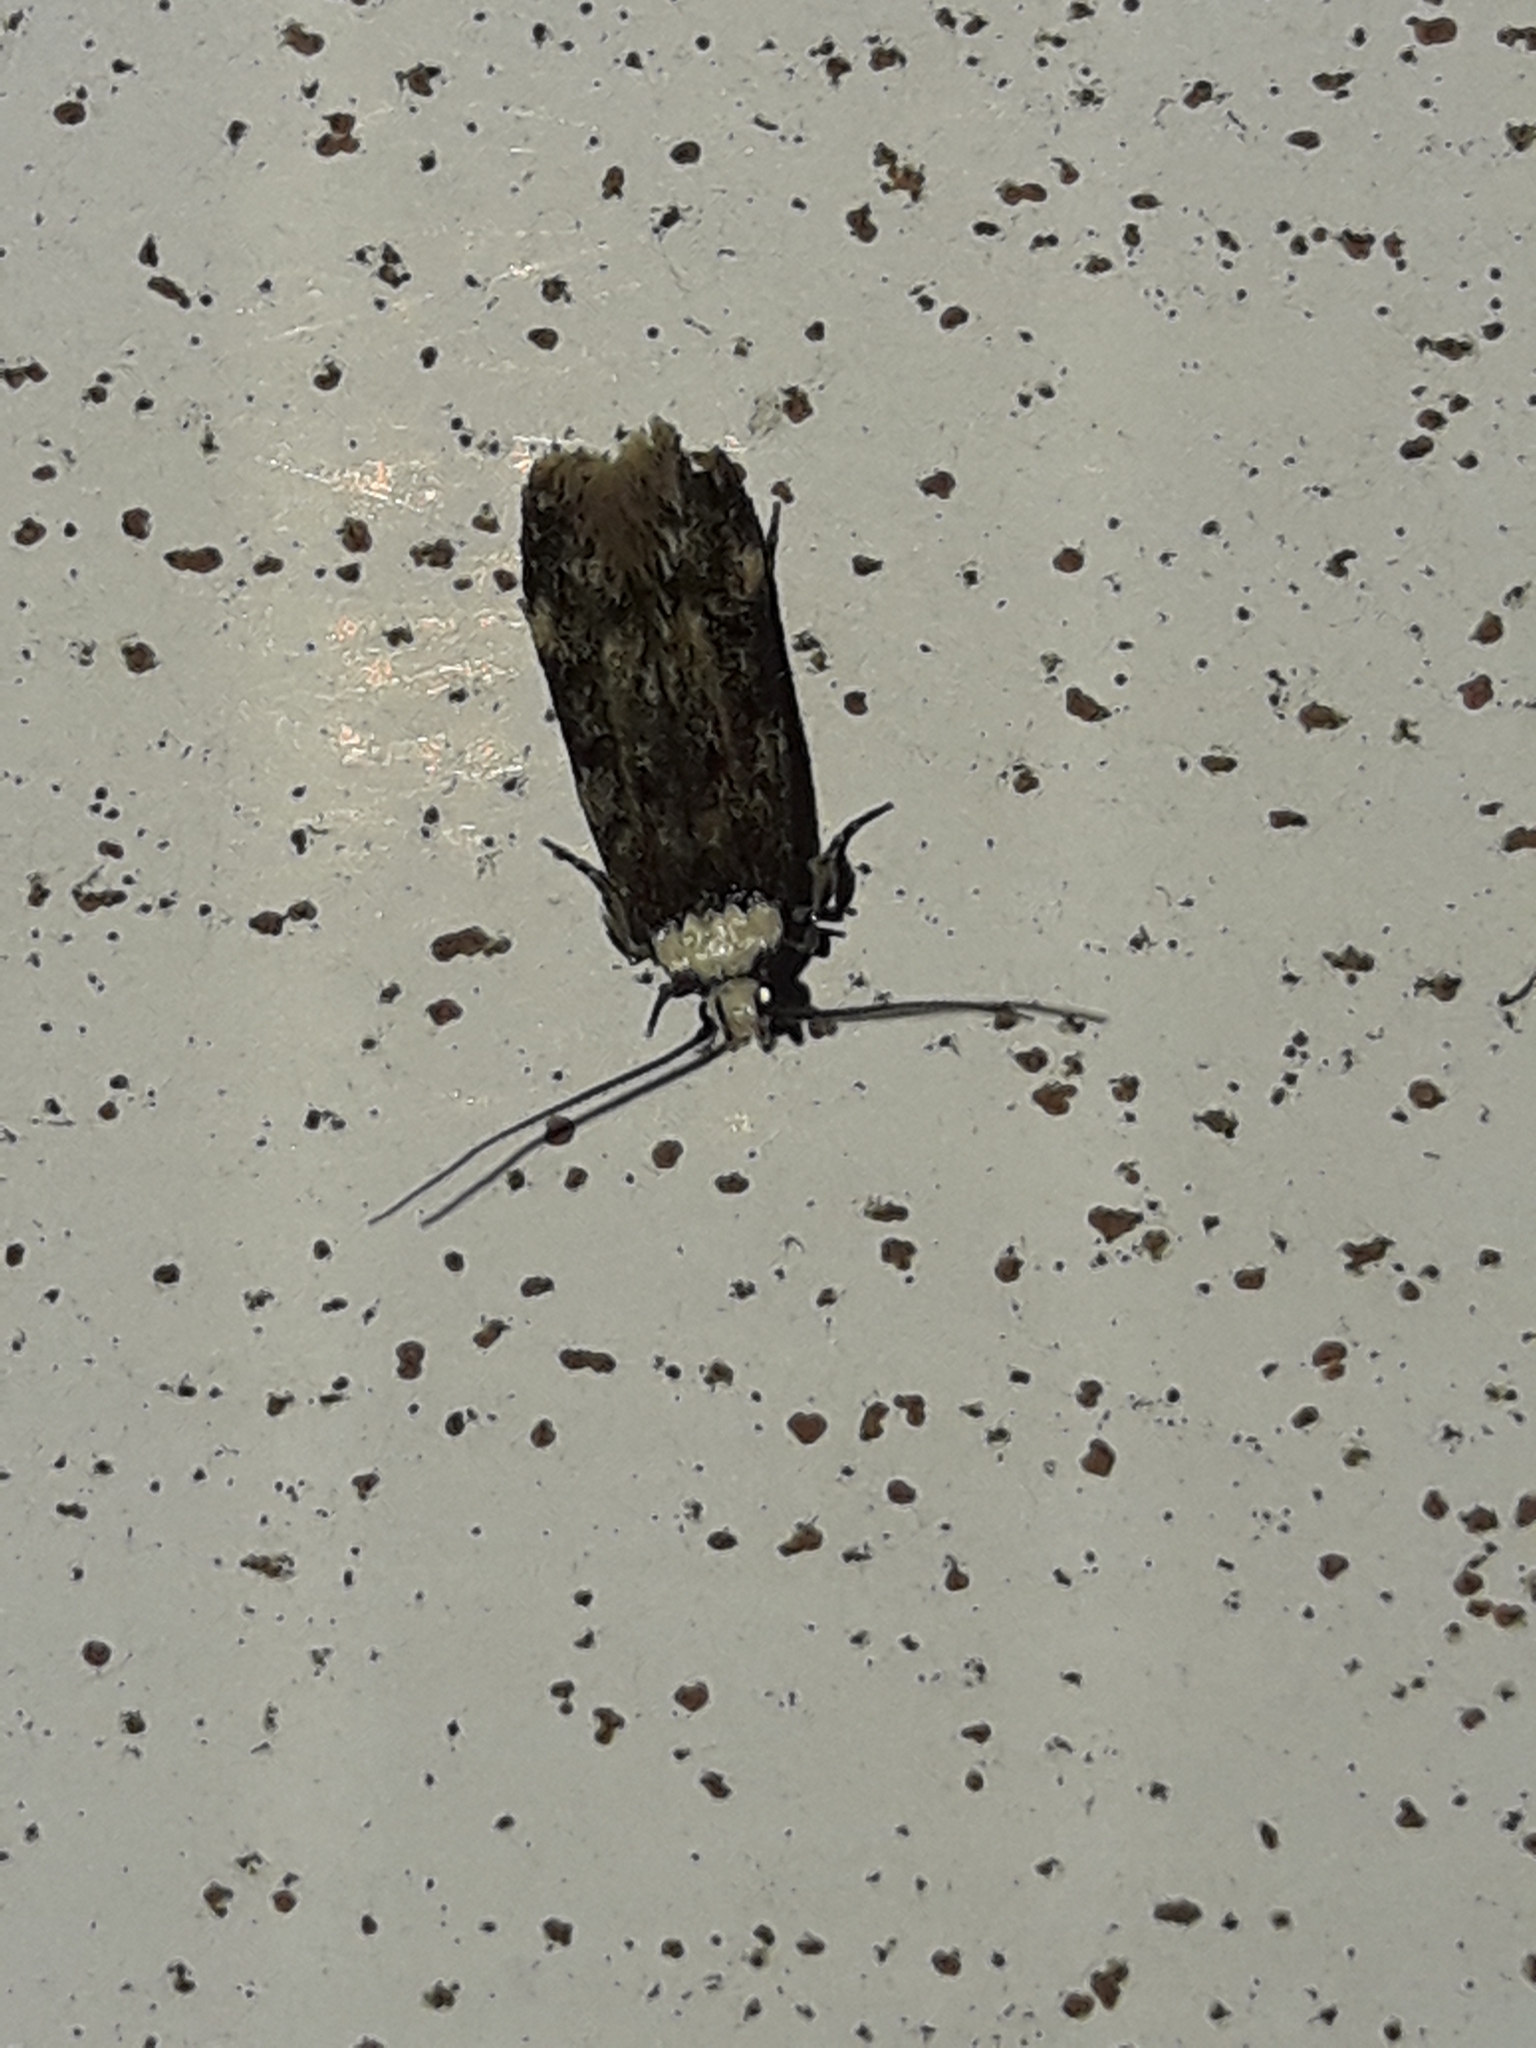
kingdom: Animalia
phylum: Arthropoda
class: Insecta
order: Lepidoptera
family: Oecophoridae
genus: Endrosis
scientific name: Endrosis sarcitrella
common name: White-shouldered house moth
